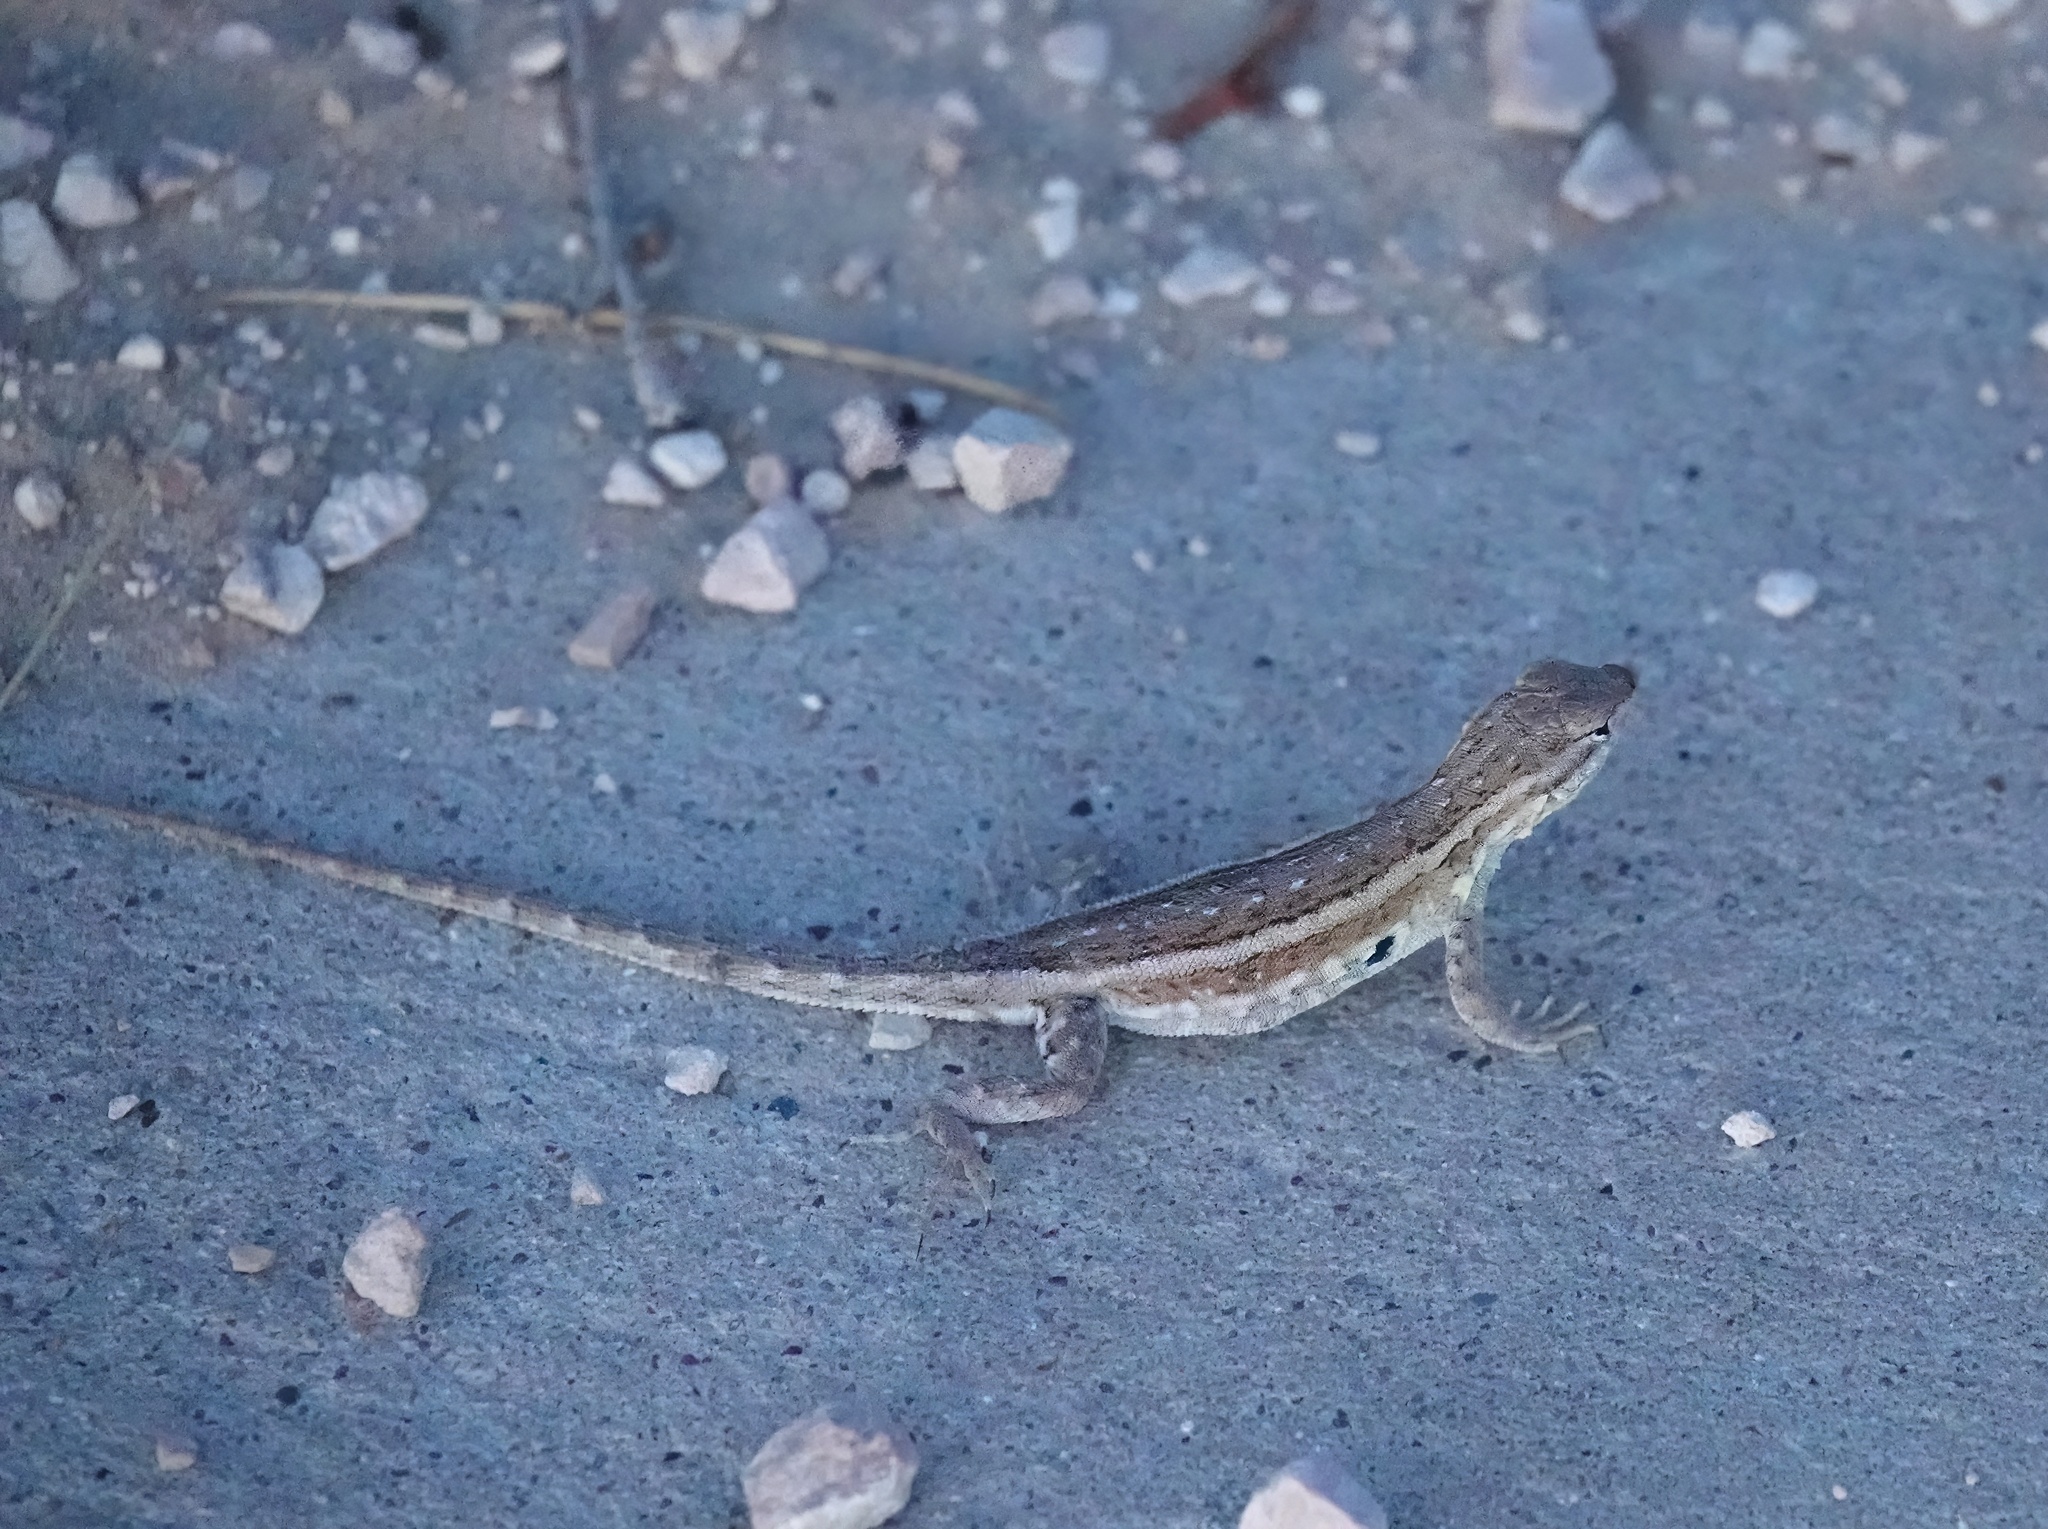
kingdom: Animalia
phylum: Chordata
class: Squamata
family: Phrynosomatidae
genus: Uta
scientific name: Uta stansburiana
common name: Side-blotched lizard
